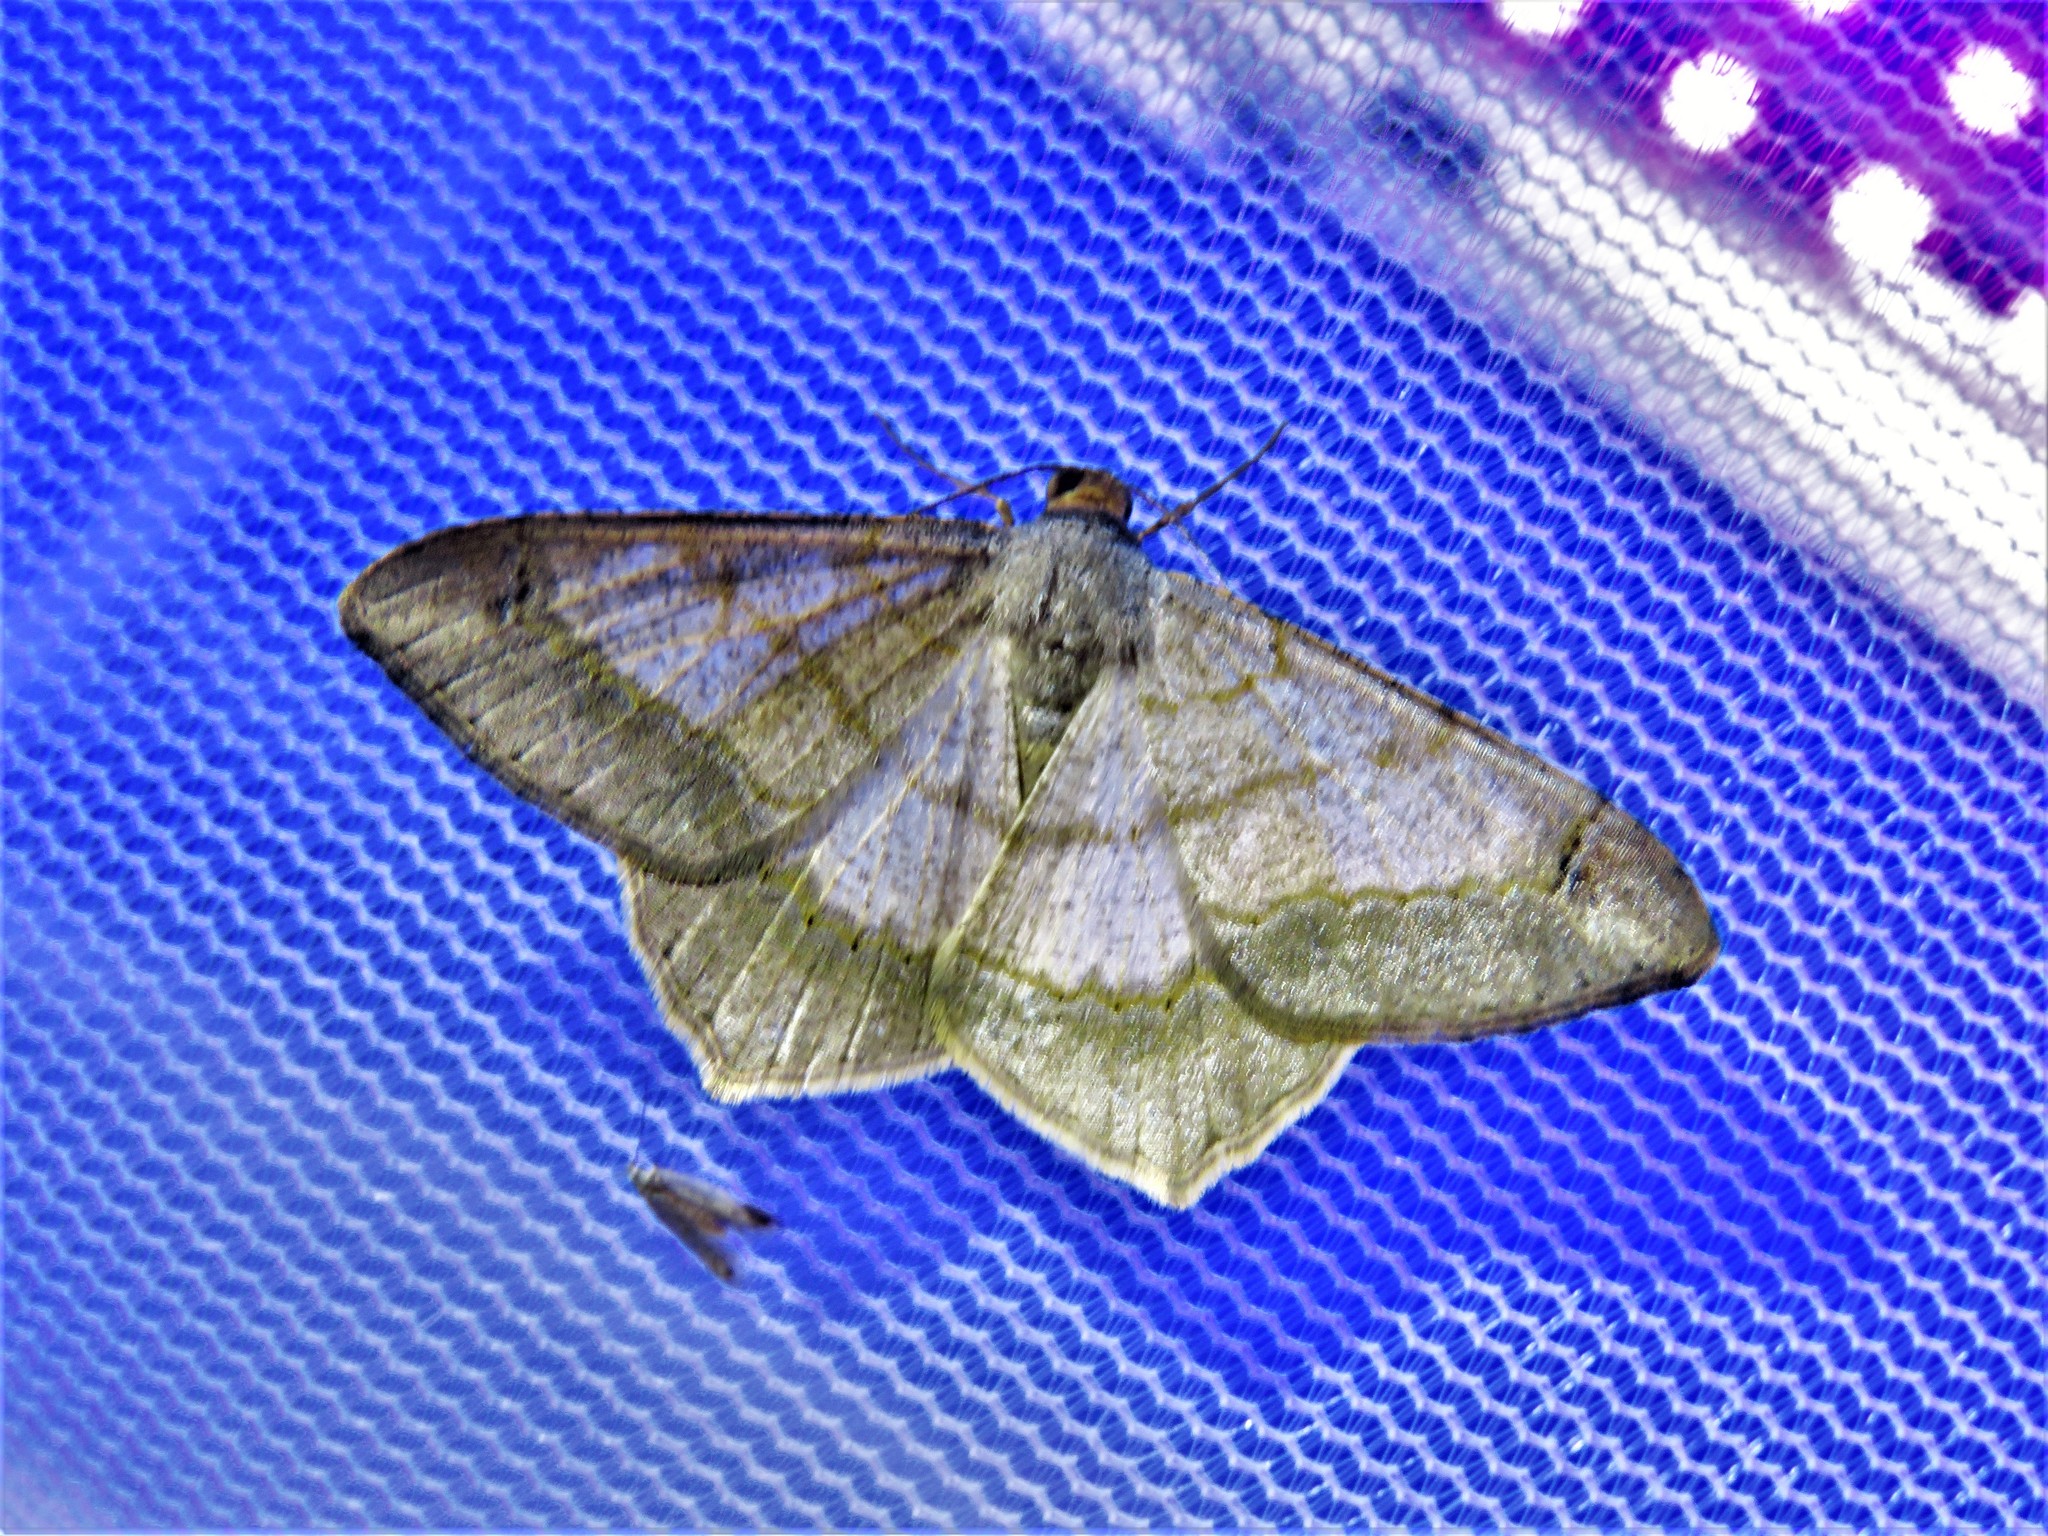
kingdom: Animalia
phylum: Arthropoda
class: Insecta
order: Lepidoptera
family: Geometridae
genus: Macaria
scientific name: Macaria abydata
